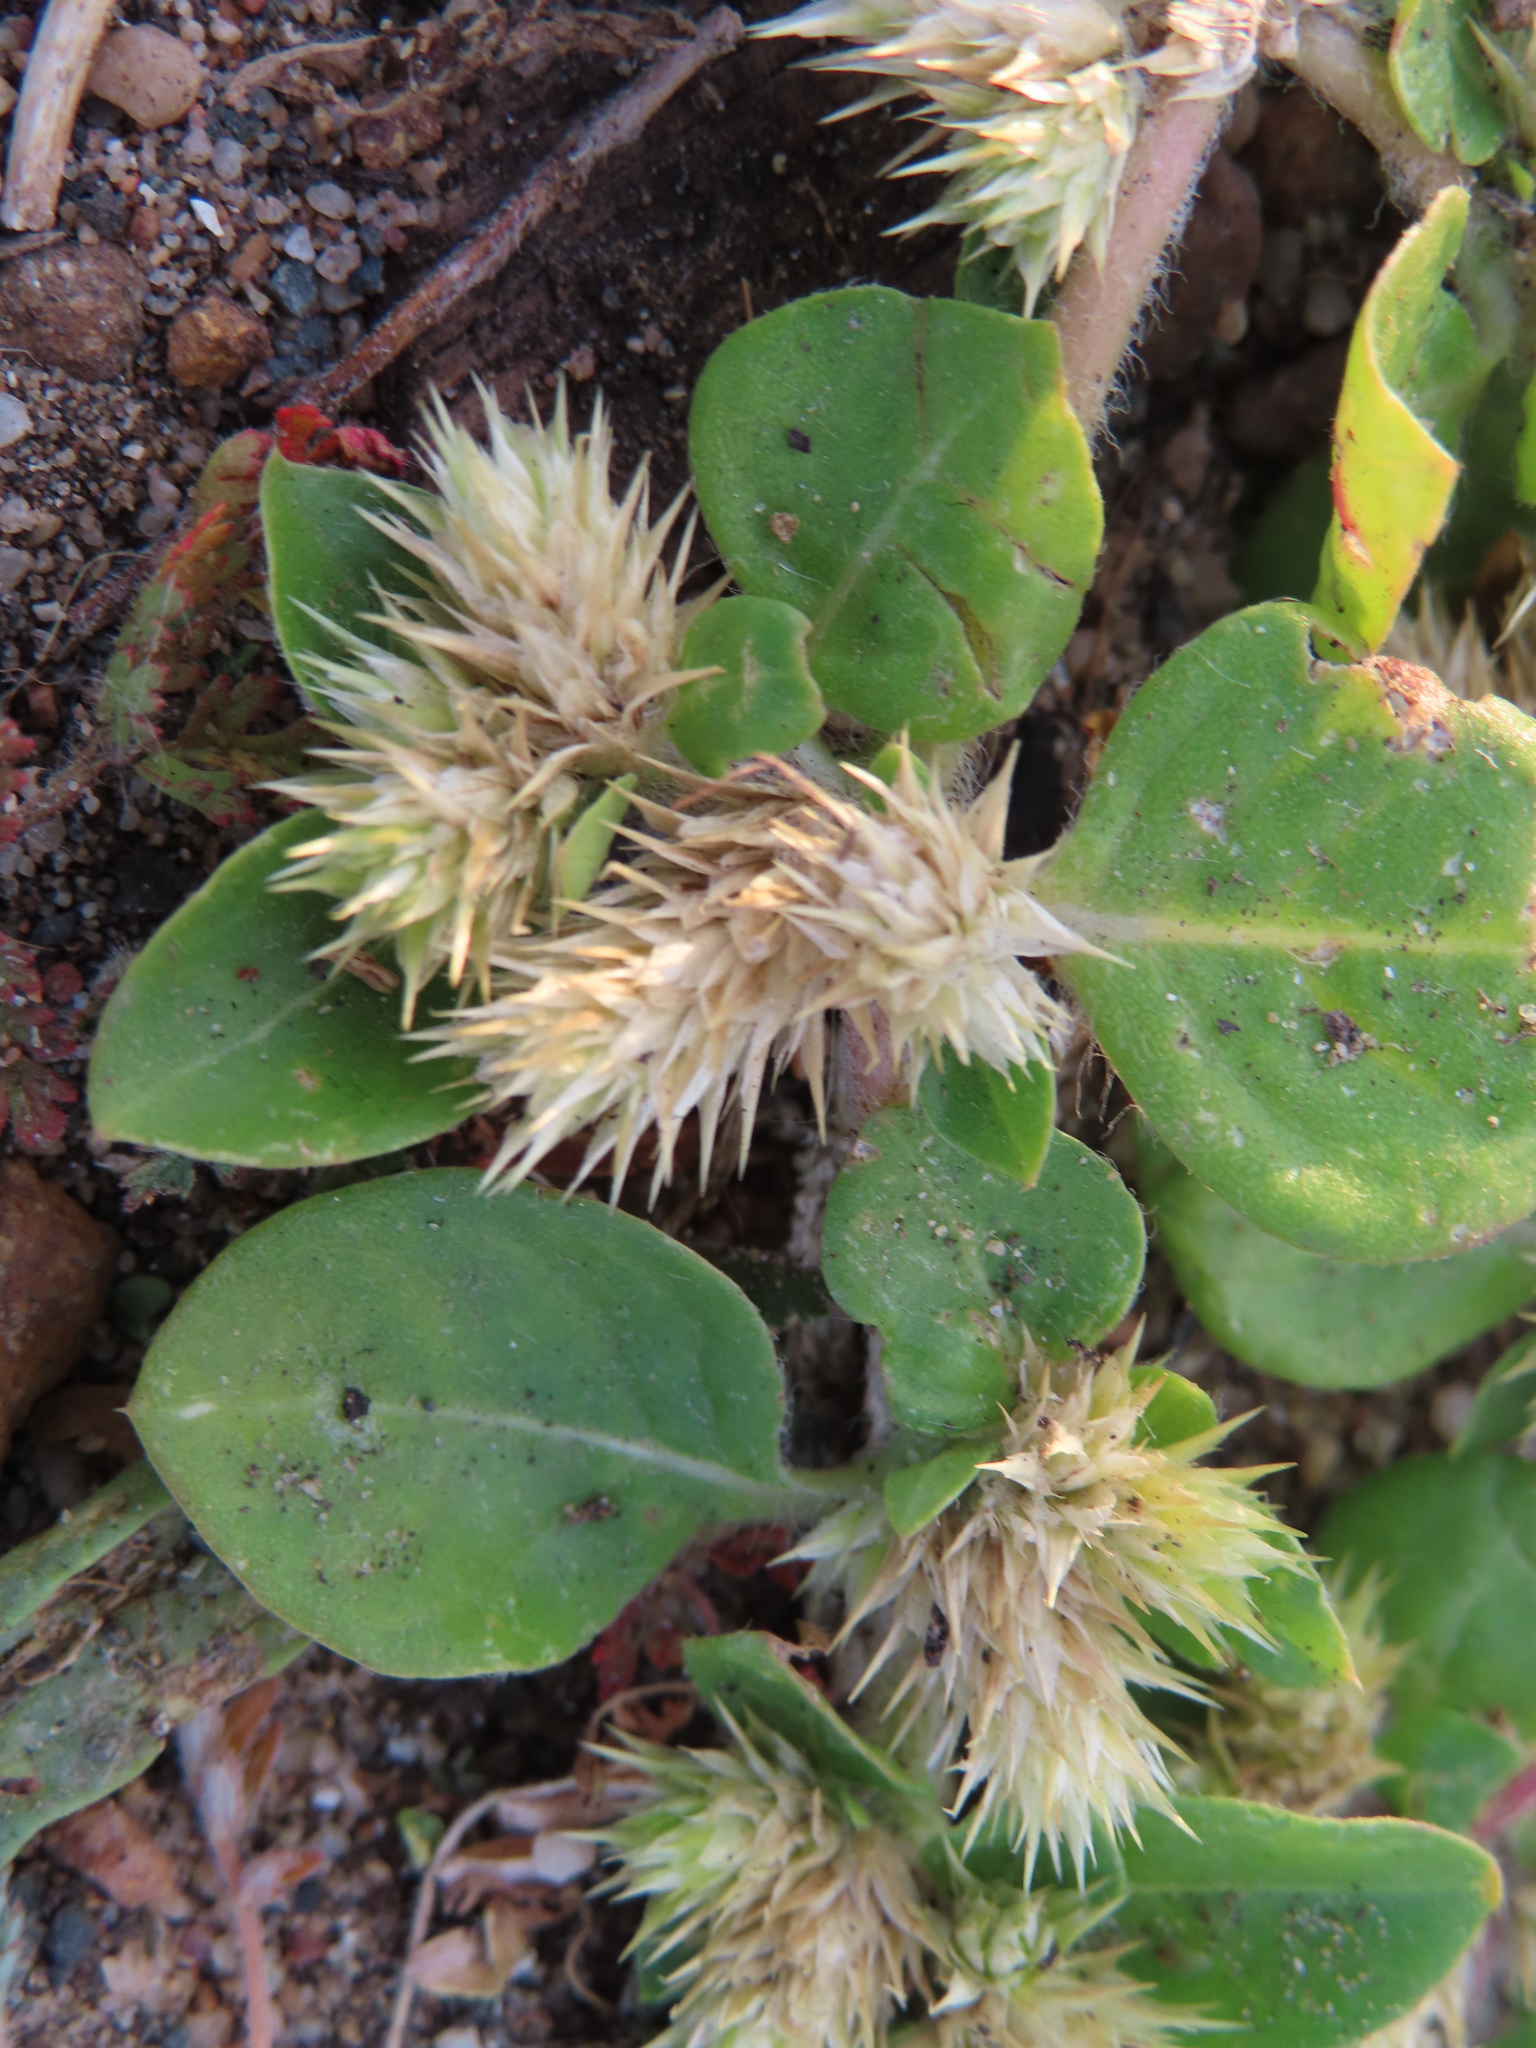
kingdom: Plantae
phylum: Tracheophyta
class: Magnoliopsida
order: Caryophyllales
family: Amaranthaceae
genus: Alternanthera
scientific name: Alternanthera pungens
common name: Khakiweed
